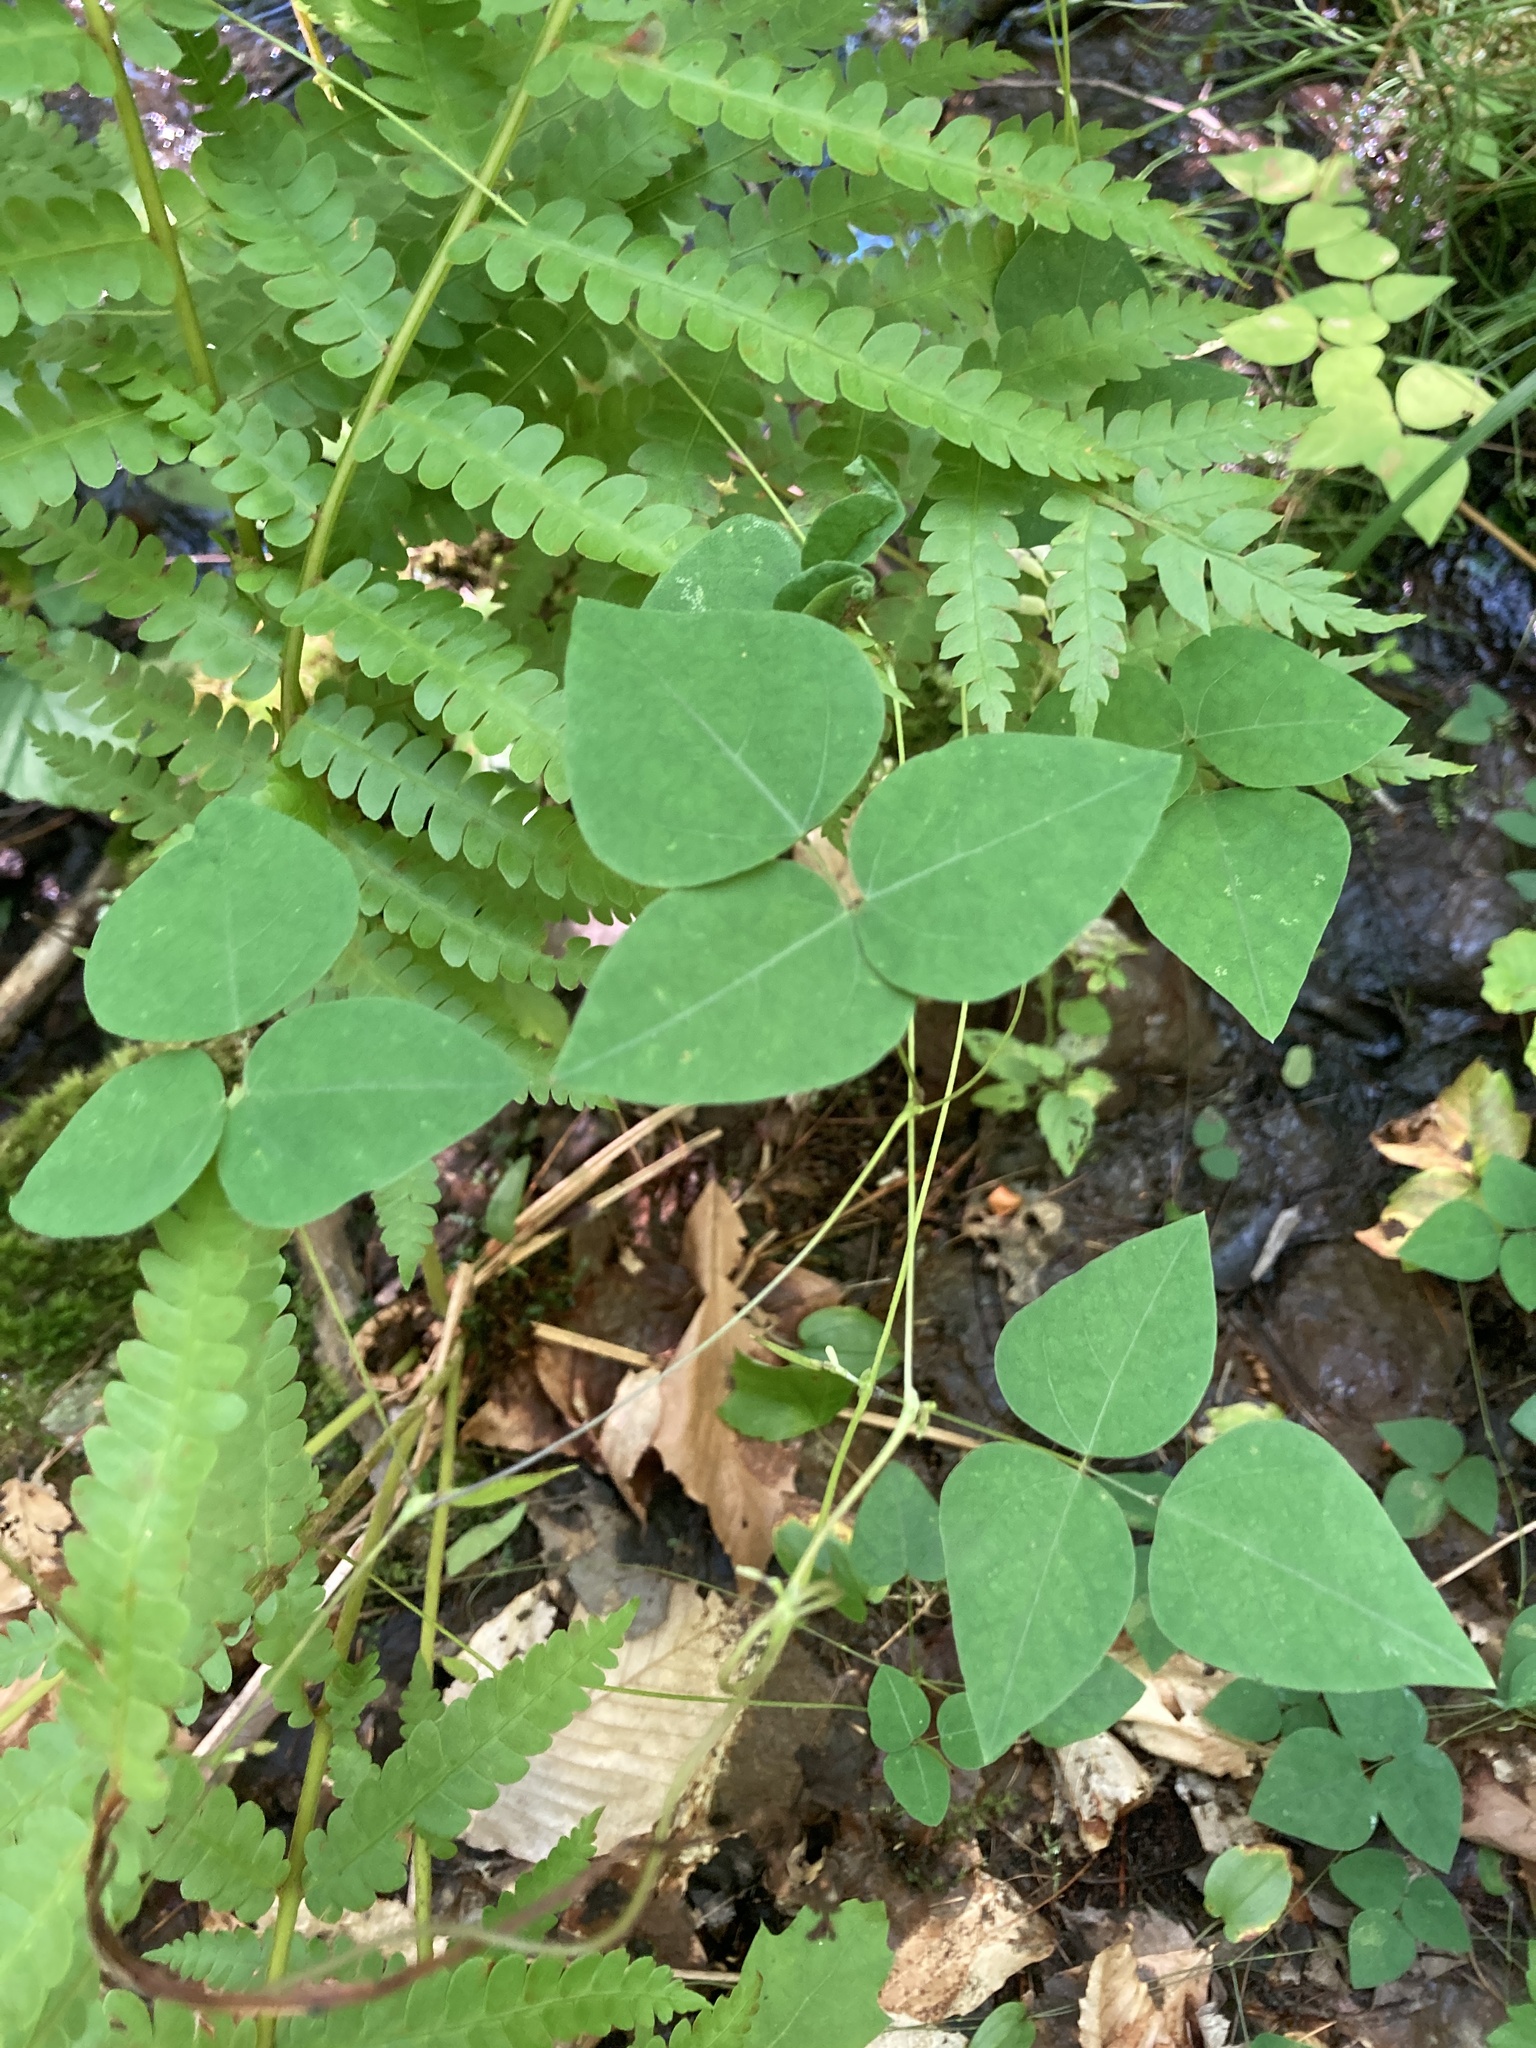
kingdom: Plantae
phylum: Tracheophyta
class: Magnoliopsida
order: Fabales
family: Fabaceae
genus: Amphicarpaea
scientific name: Amphicarpaea bracteata
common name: American hog peanut
